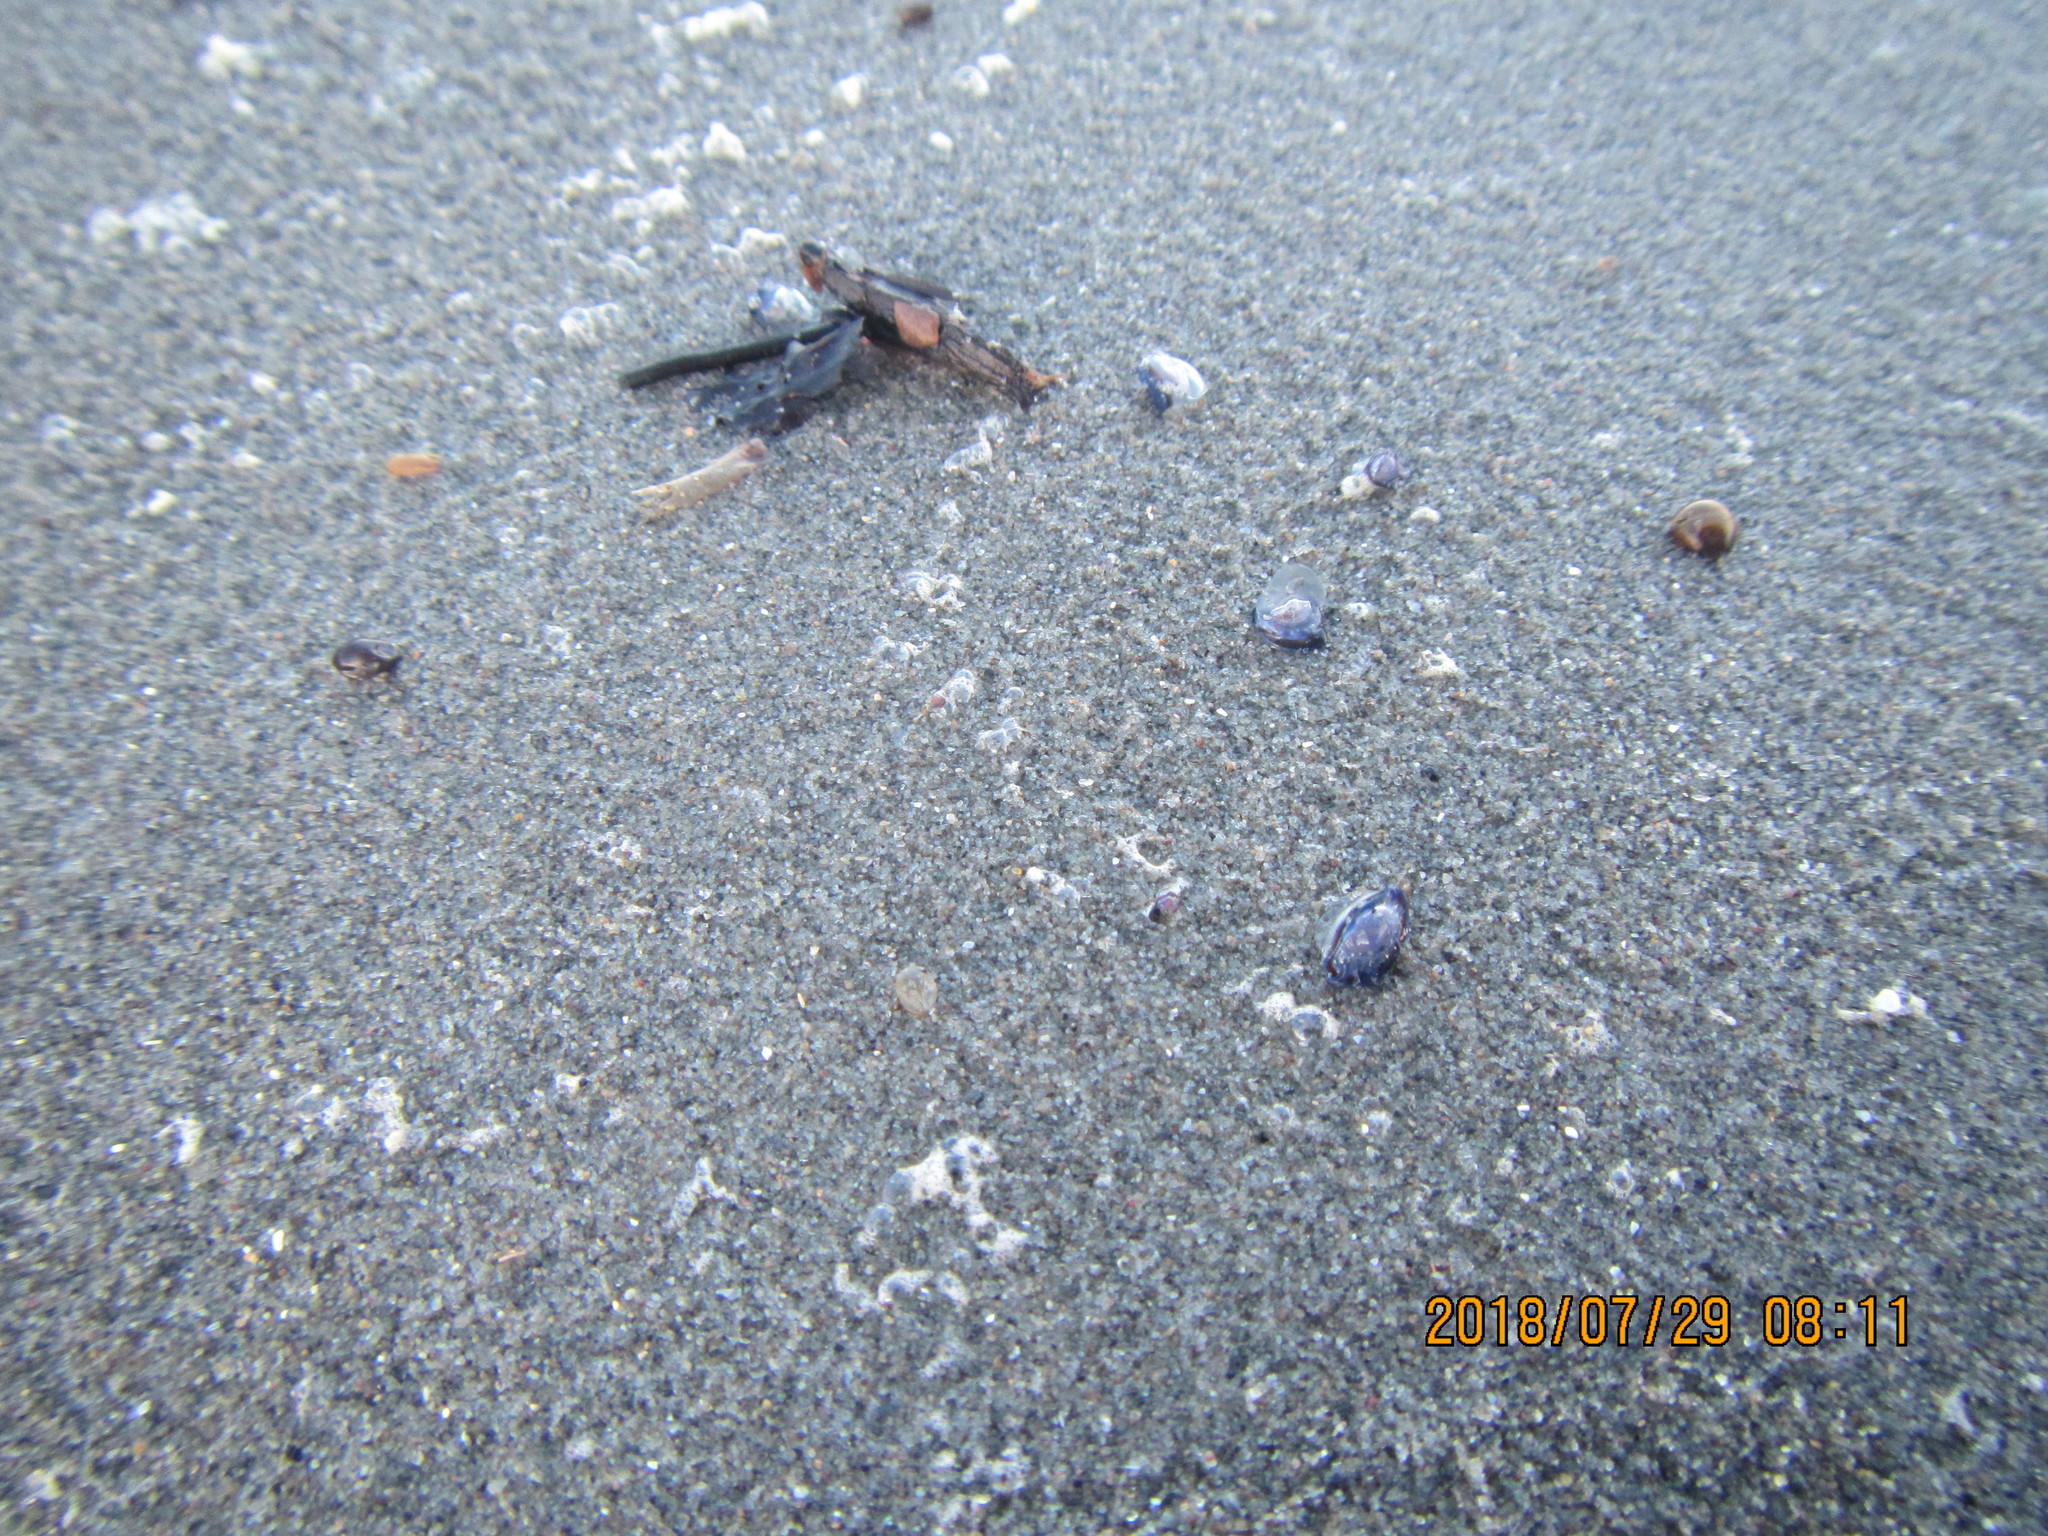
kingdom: Animalia
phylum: Cnidaria
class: Hydrozoa
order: Anthoathecata
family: Porpitidae
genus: Velella
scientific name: Velella velella
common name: By-the-wind-sailor
